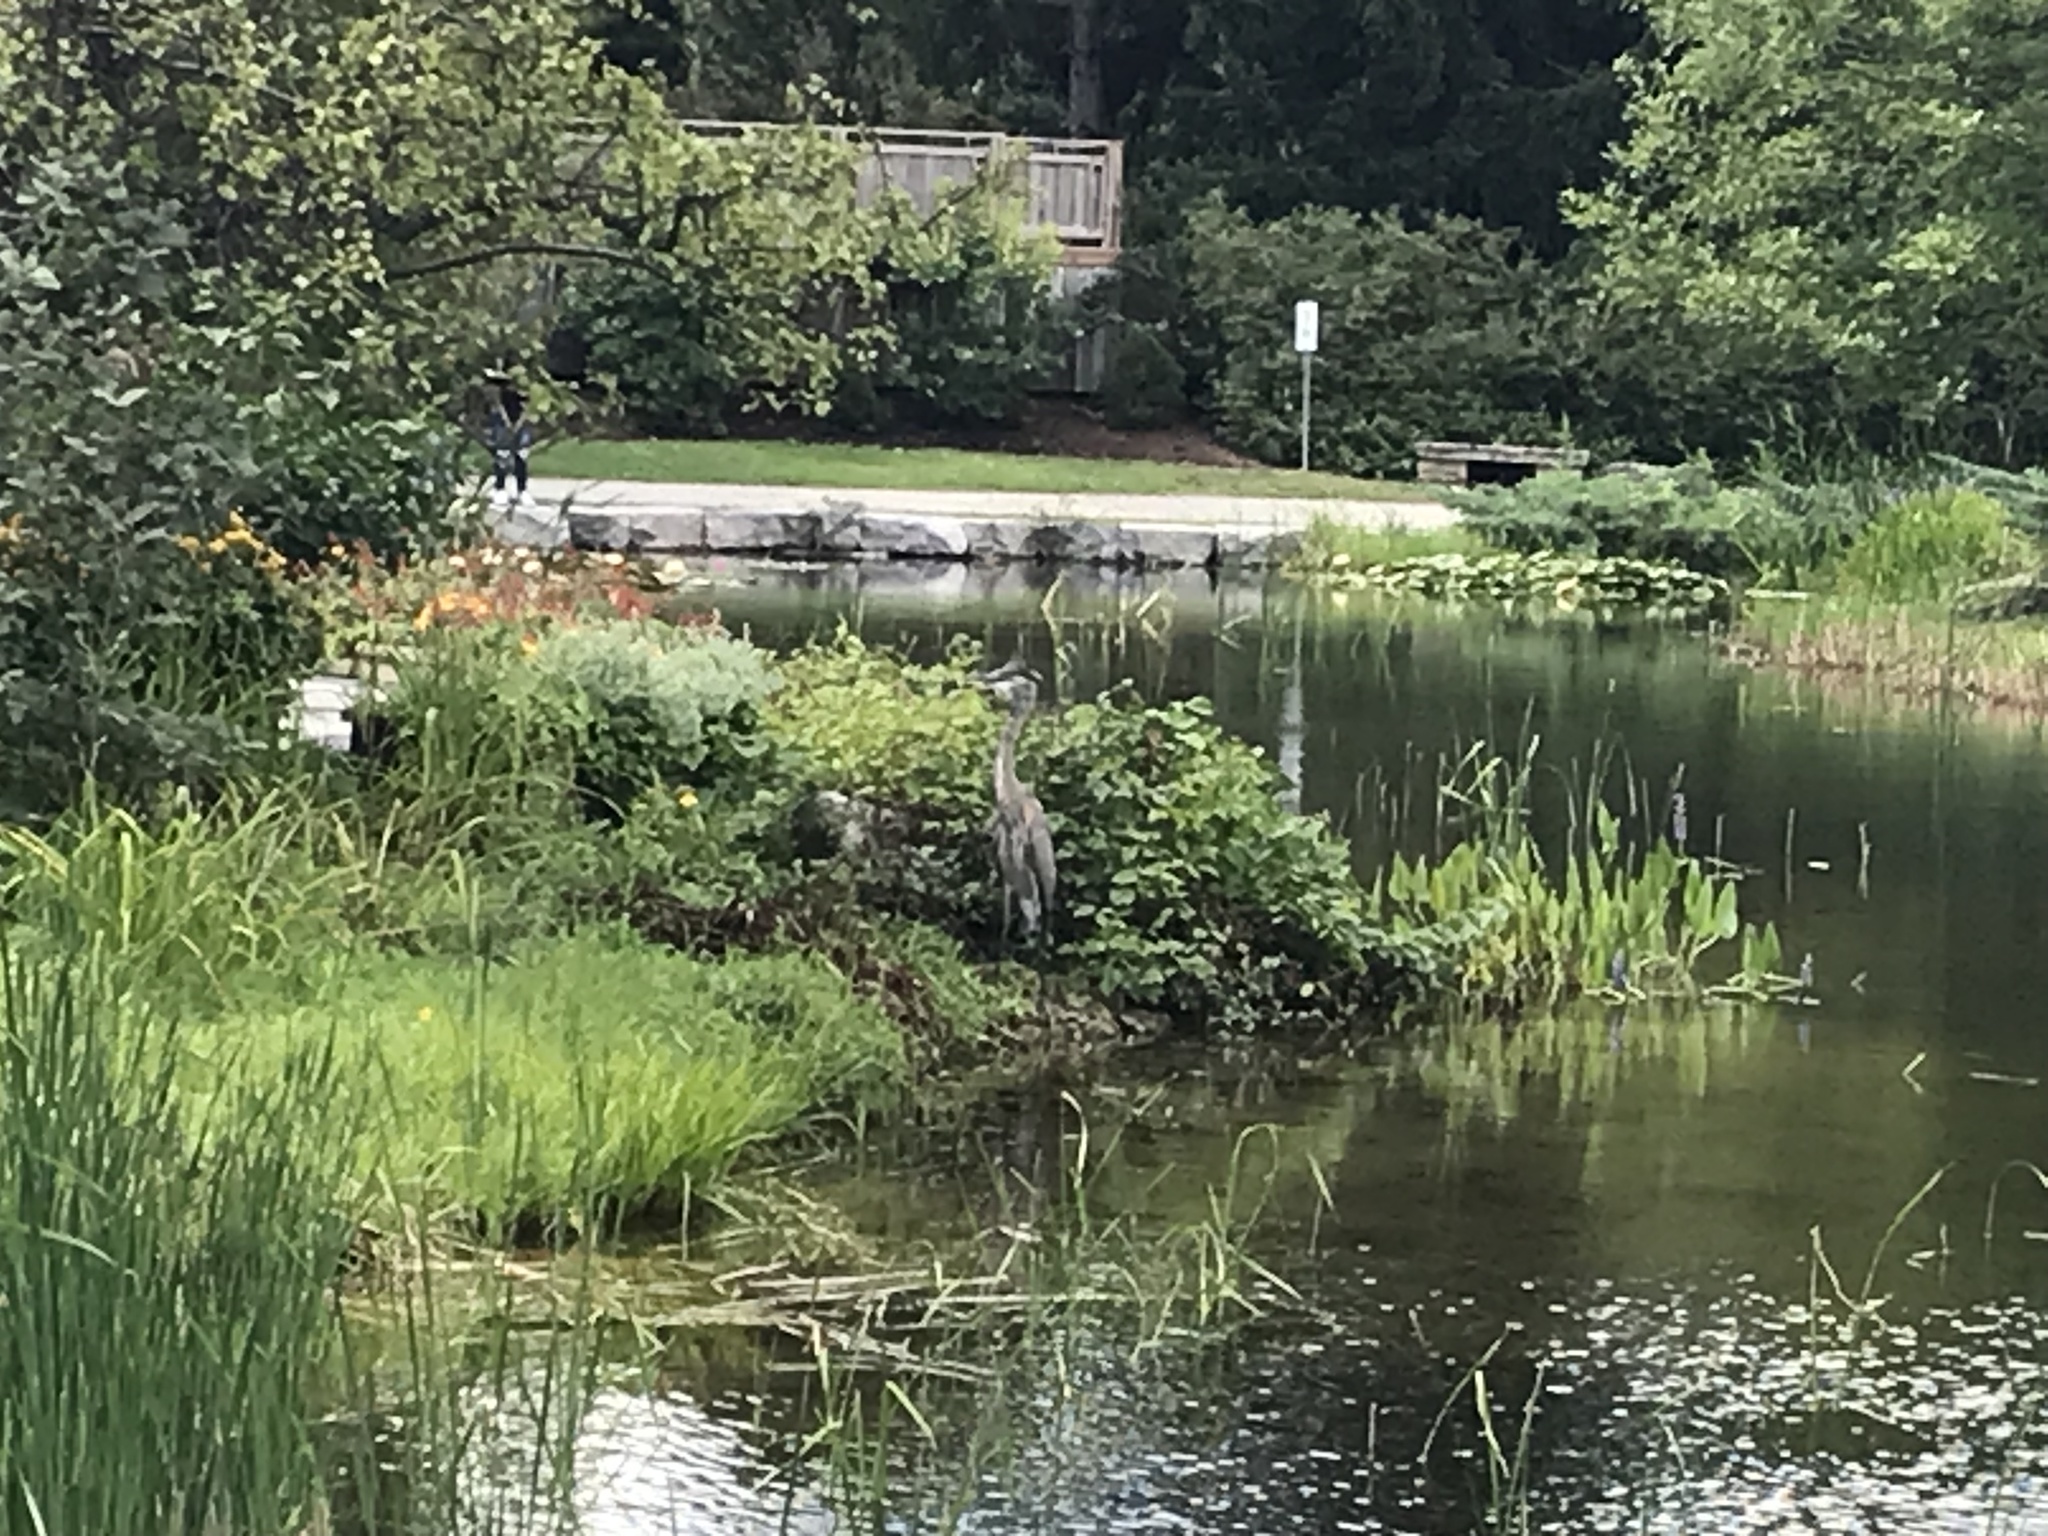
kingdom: Animalia
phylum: Chordata
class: Aves
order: Pelecaniformes
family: Ardeidae
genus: Ardea
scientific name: Ardea herodias
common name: Great blue heron
